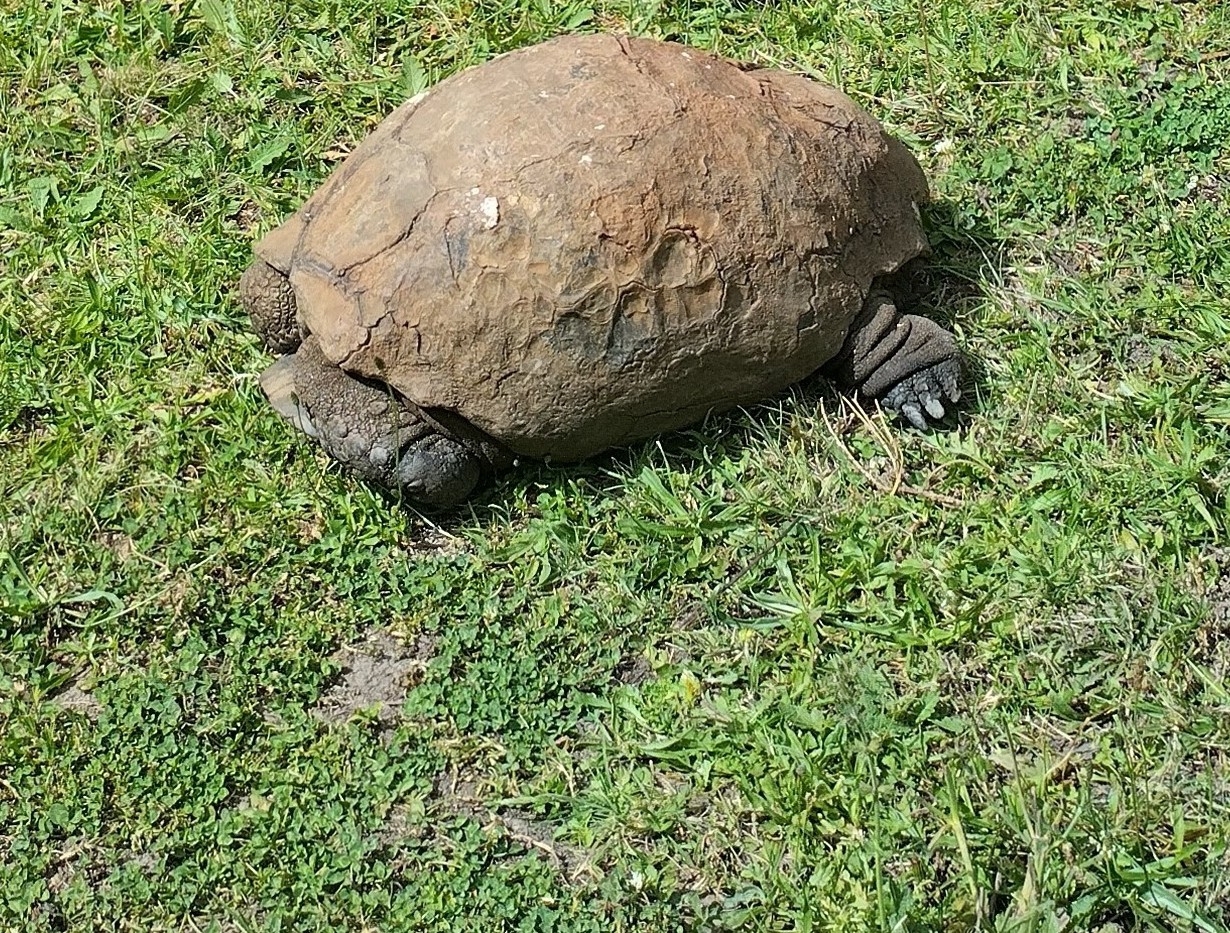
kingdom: Animalia
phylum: Chordata
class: Testudines
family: Testudinidae
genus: Stigmochelys
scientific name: Stigmochelys pardalis
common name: Leopard tortoise
